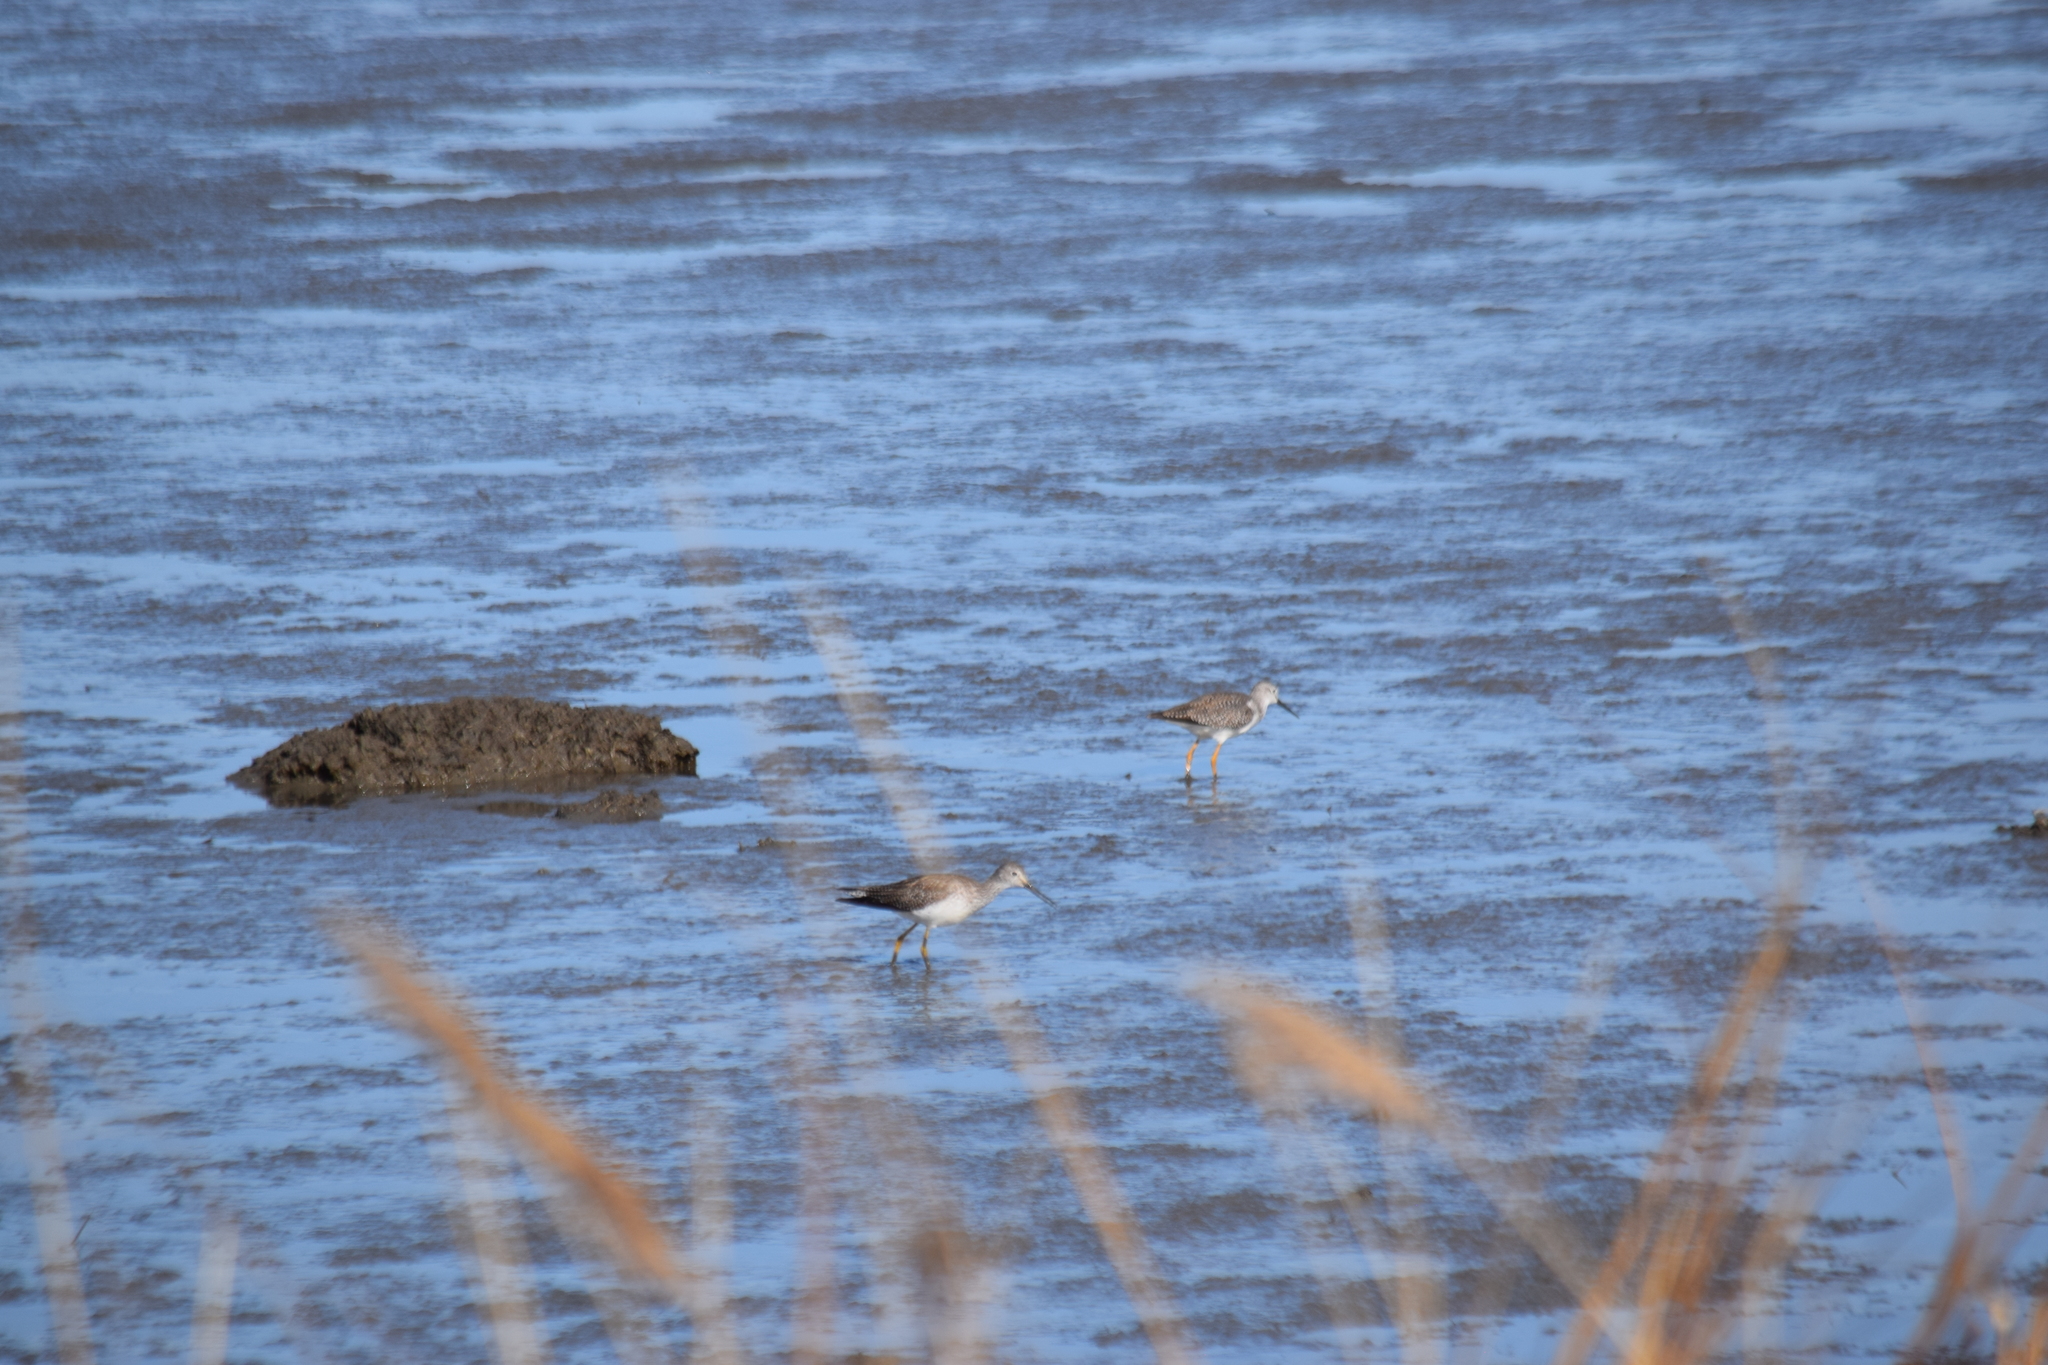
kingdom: Animalia
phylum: Chordata
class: Aves
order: Charadriiformes
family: Scolopacidae
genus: Tringa
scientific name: Tringa melanoleuca
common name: Greater yellowlegs
